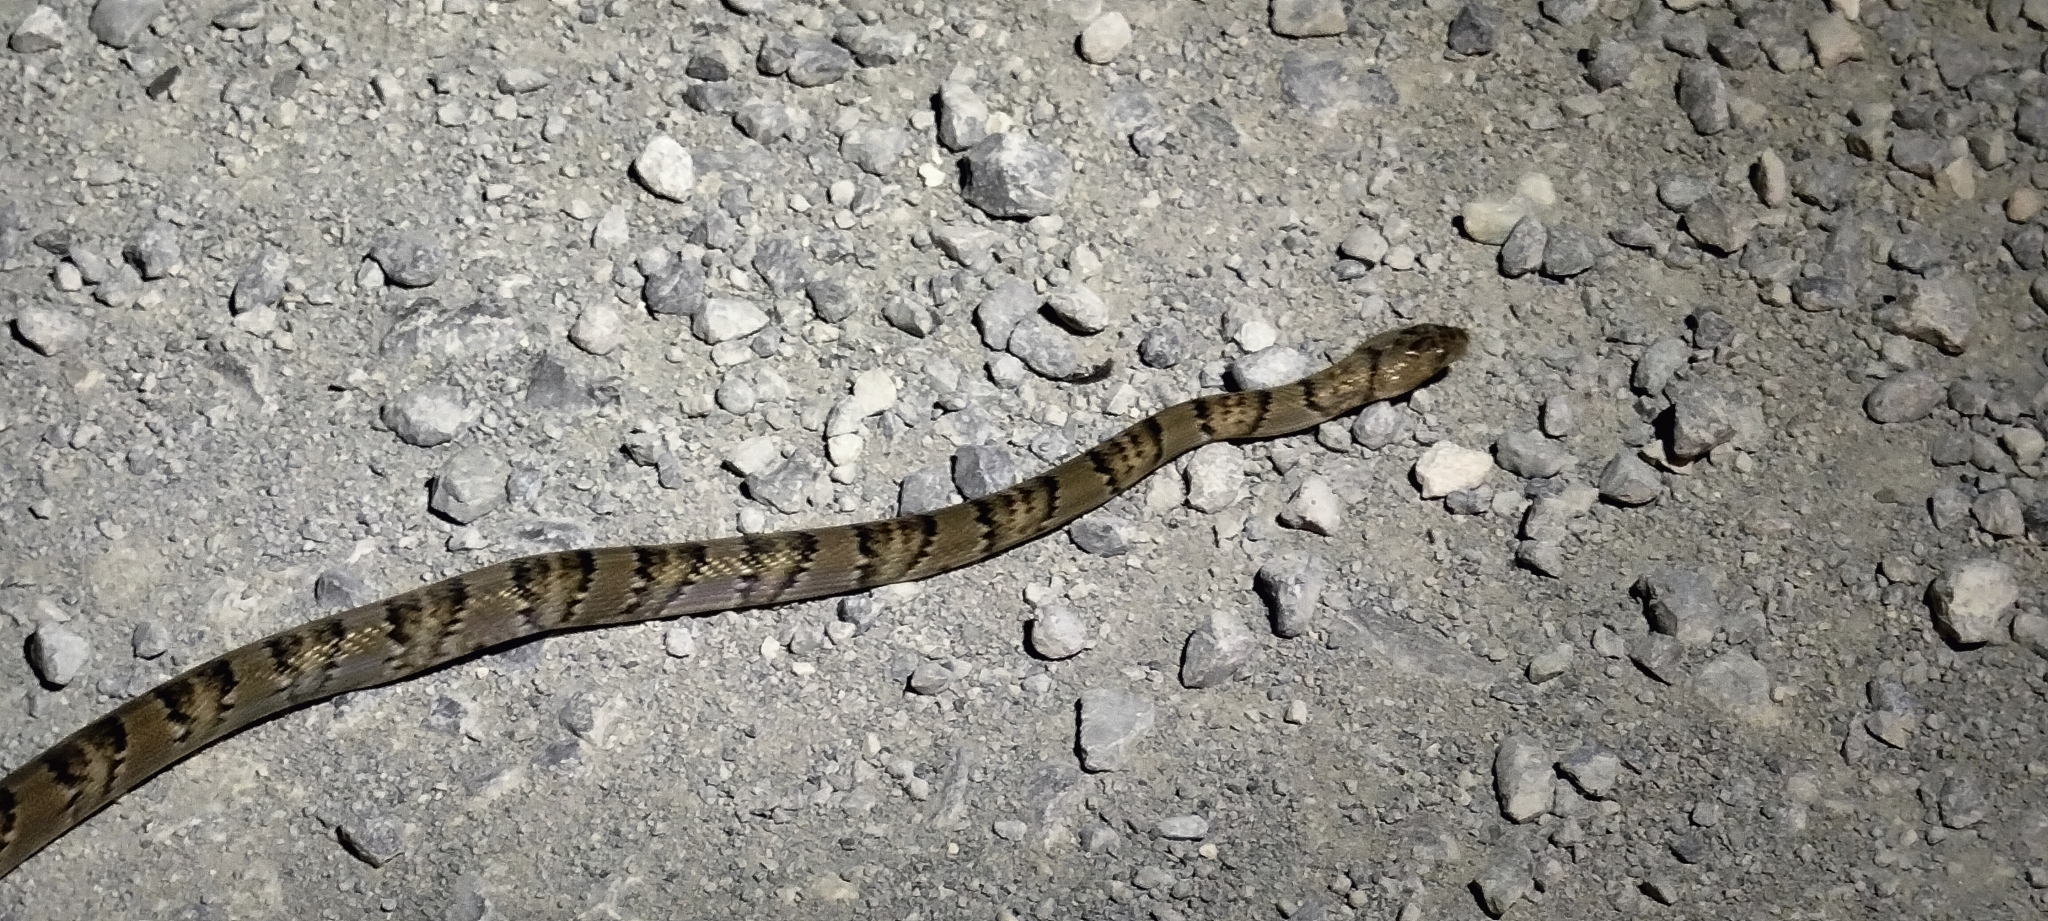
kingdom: Animalia
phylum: Chordata
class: Squamata
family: Colubridae
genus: Trimorphodon
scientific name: Trimorphodon tau
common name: Mexican lyre snake
